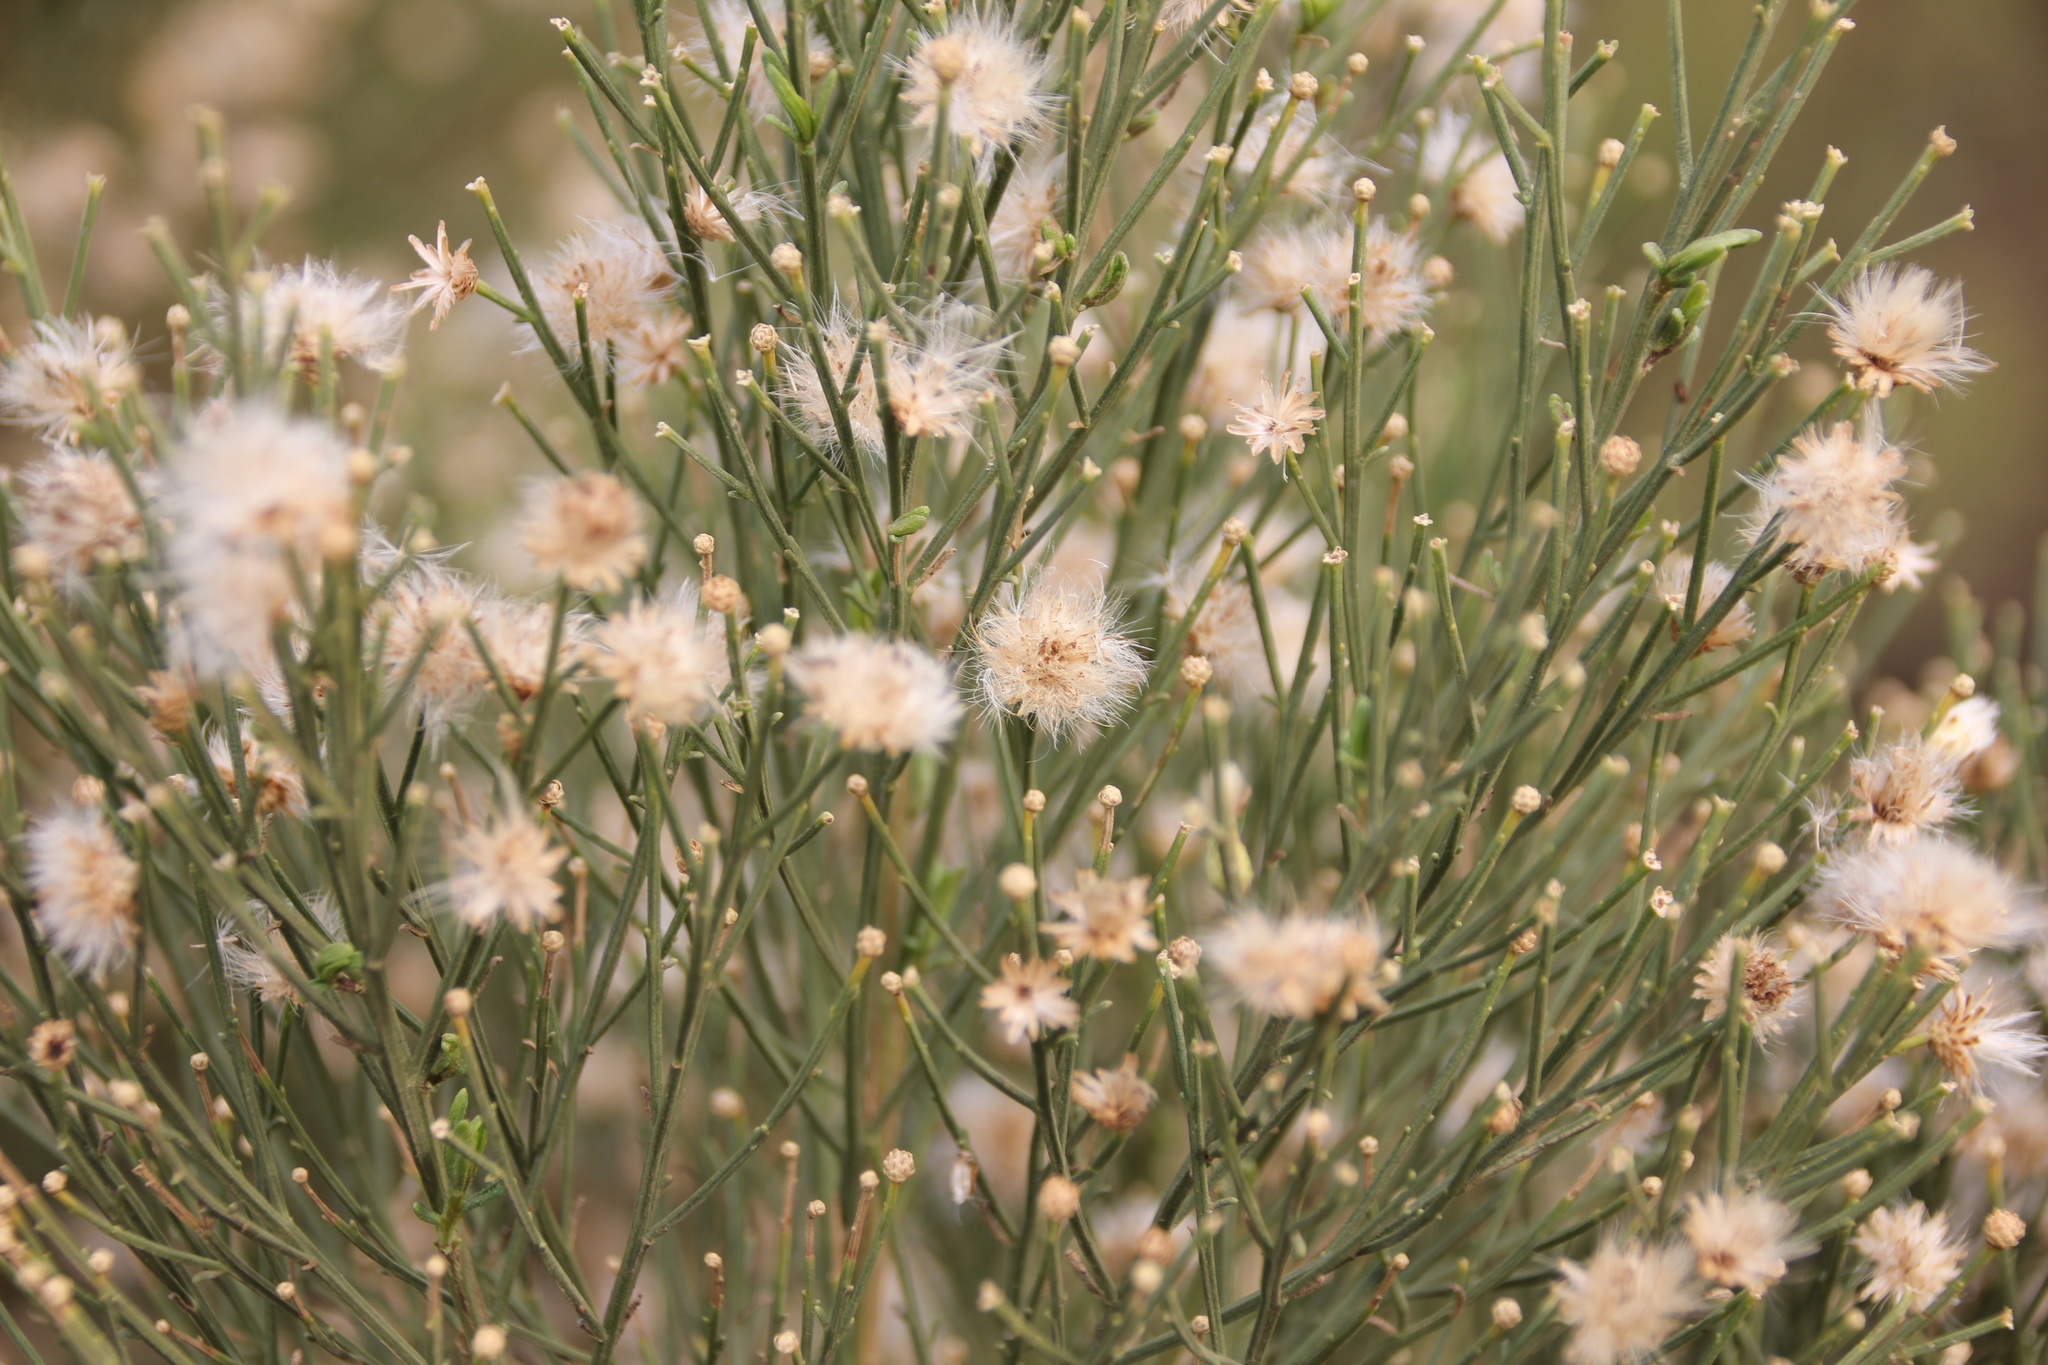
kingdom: Plantae
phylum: Tracheophyta
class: Magnoliopsida
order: Asterales
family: Asteraceae
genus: Baccharis
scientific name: Baccharis sarothroides
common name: Desert-broom
